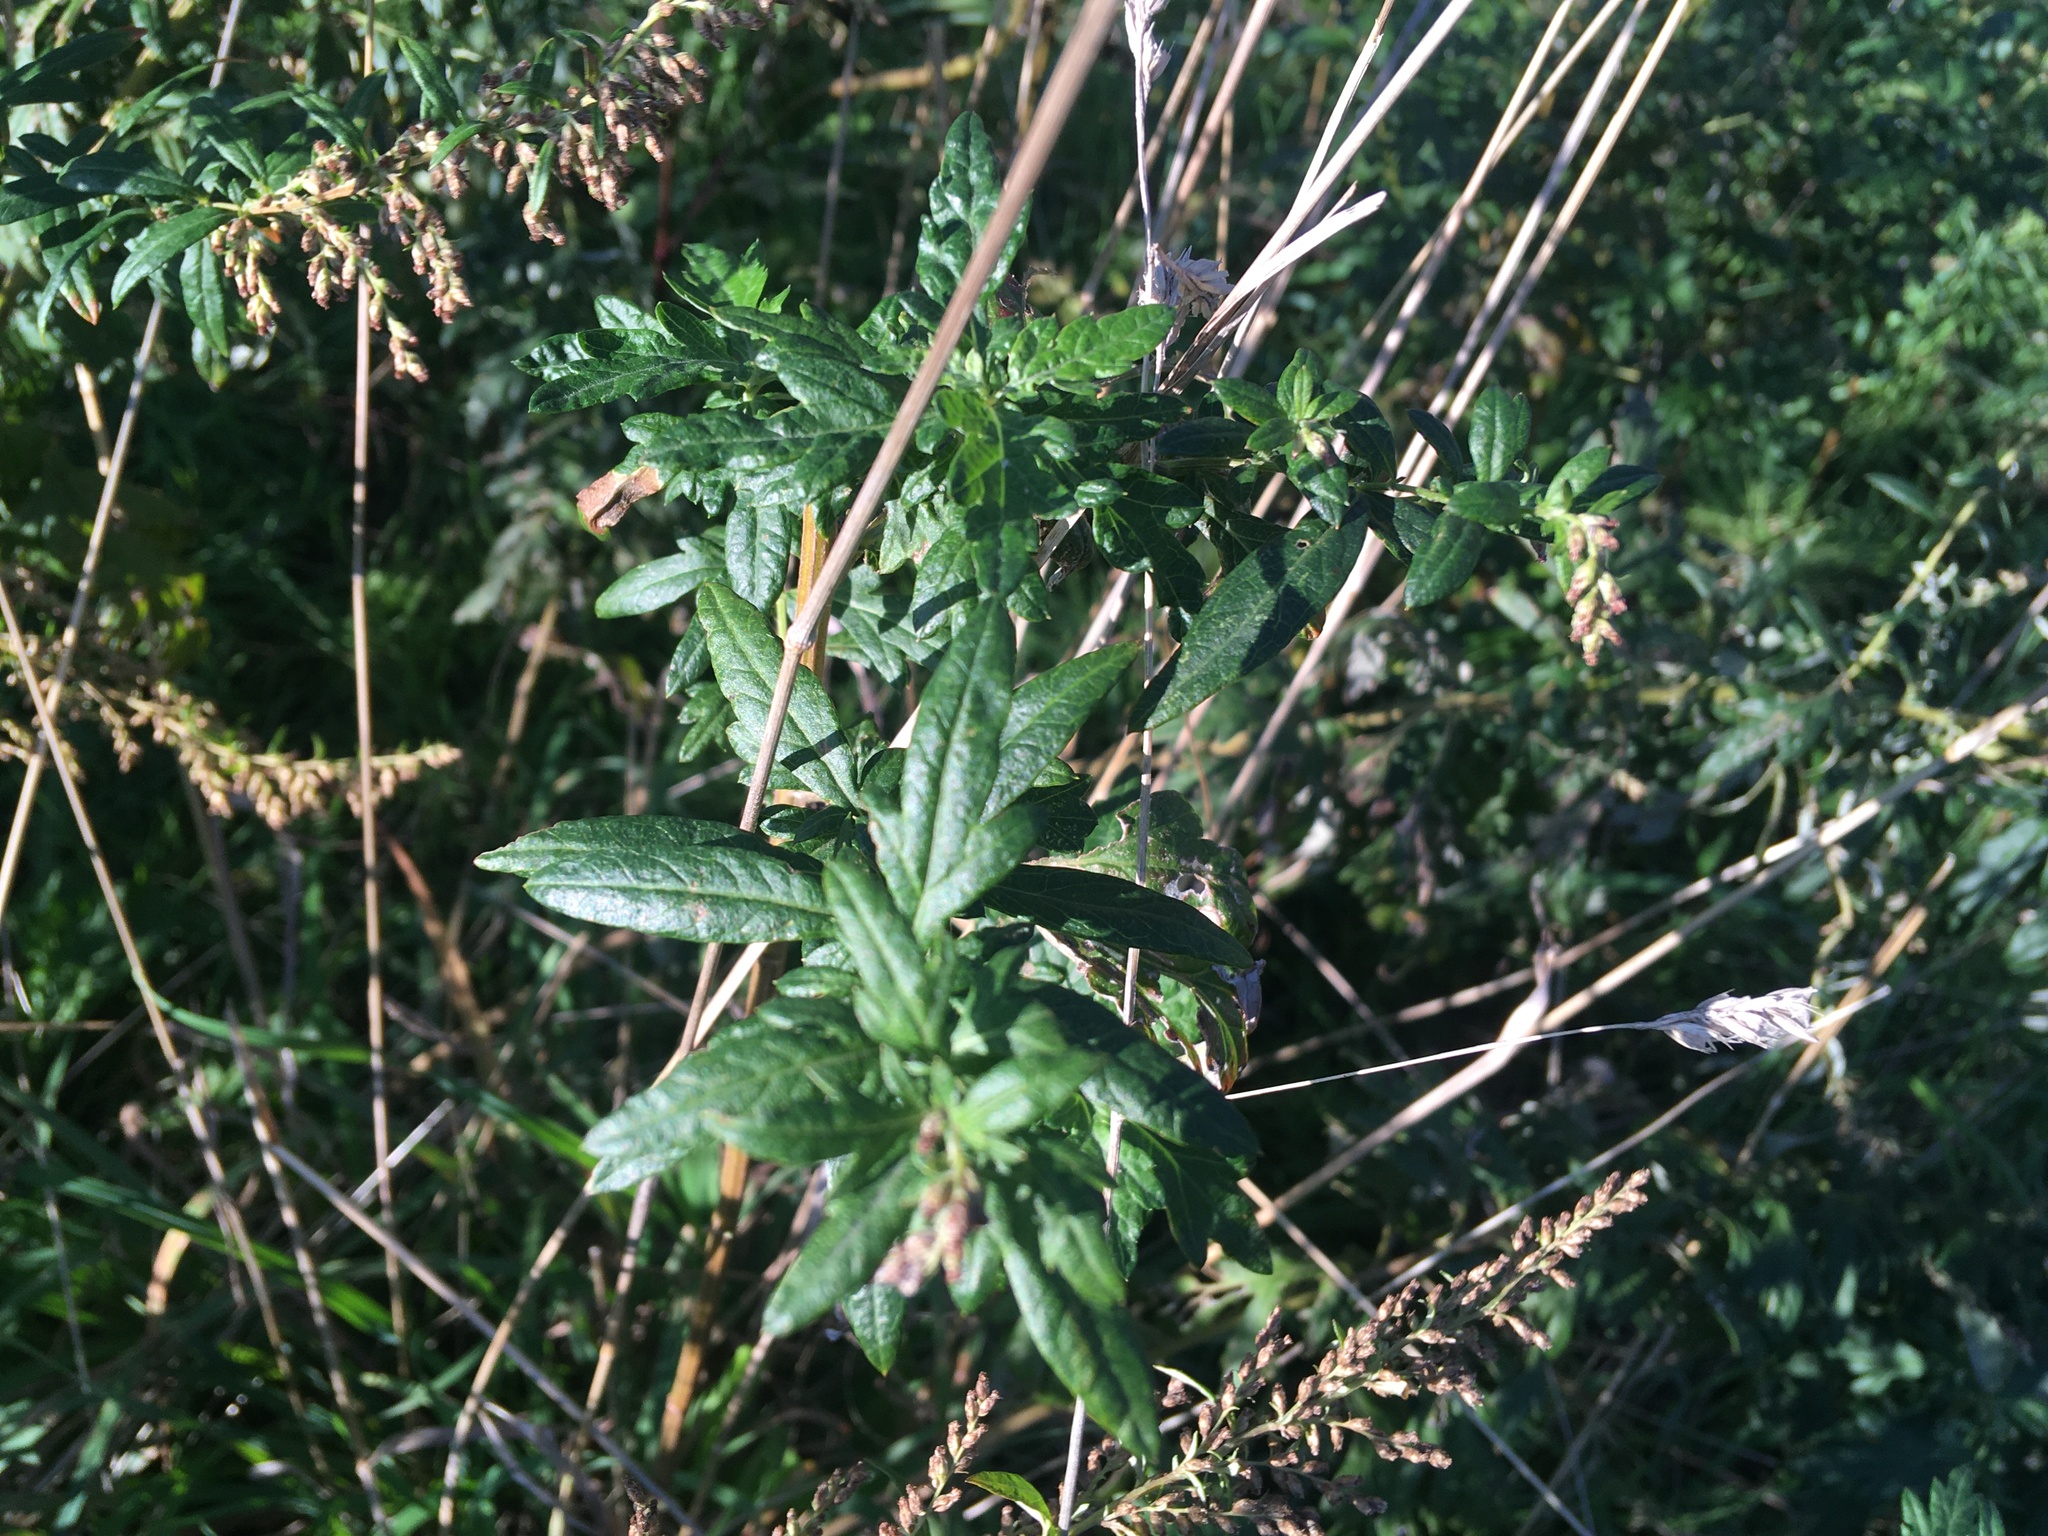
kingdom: Plantae
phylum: Tracheophyta
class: Magnoliopsida
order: Asterales
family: Asteraceae
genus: Artemisia
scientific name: Artemisia vulgaris
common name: Mugwort
